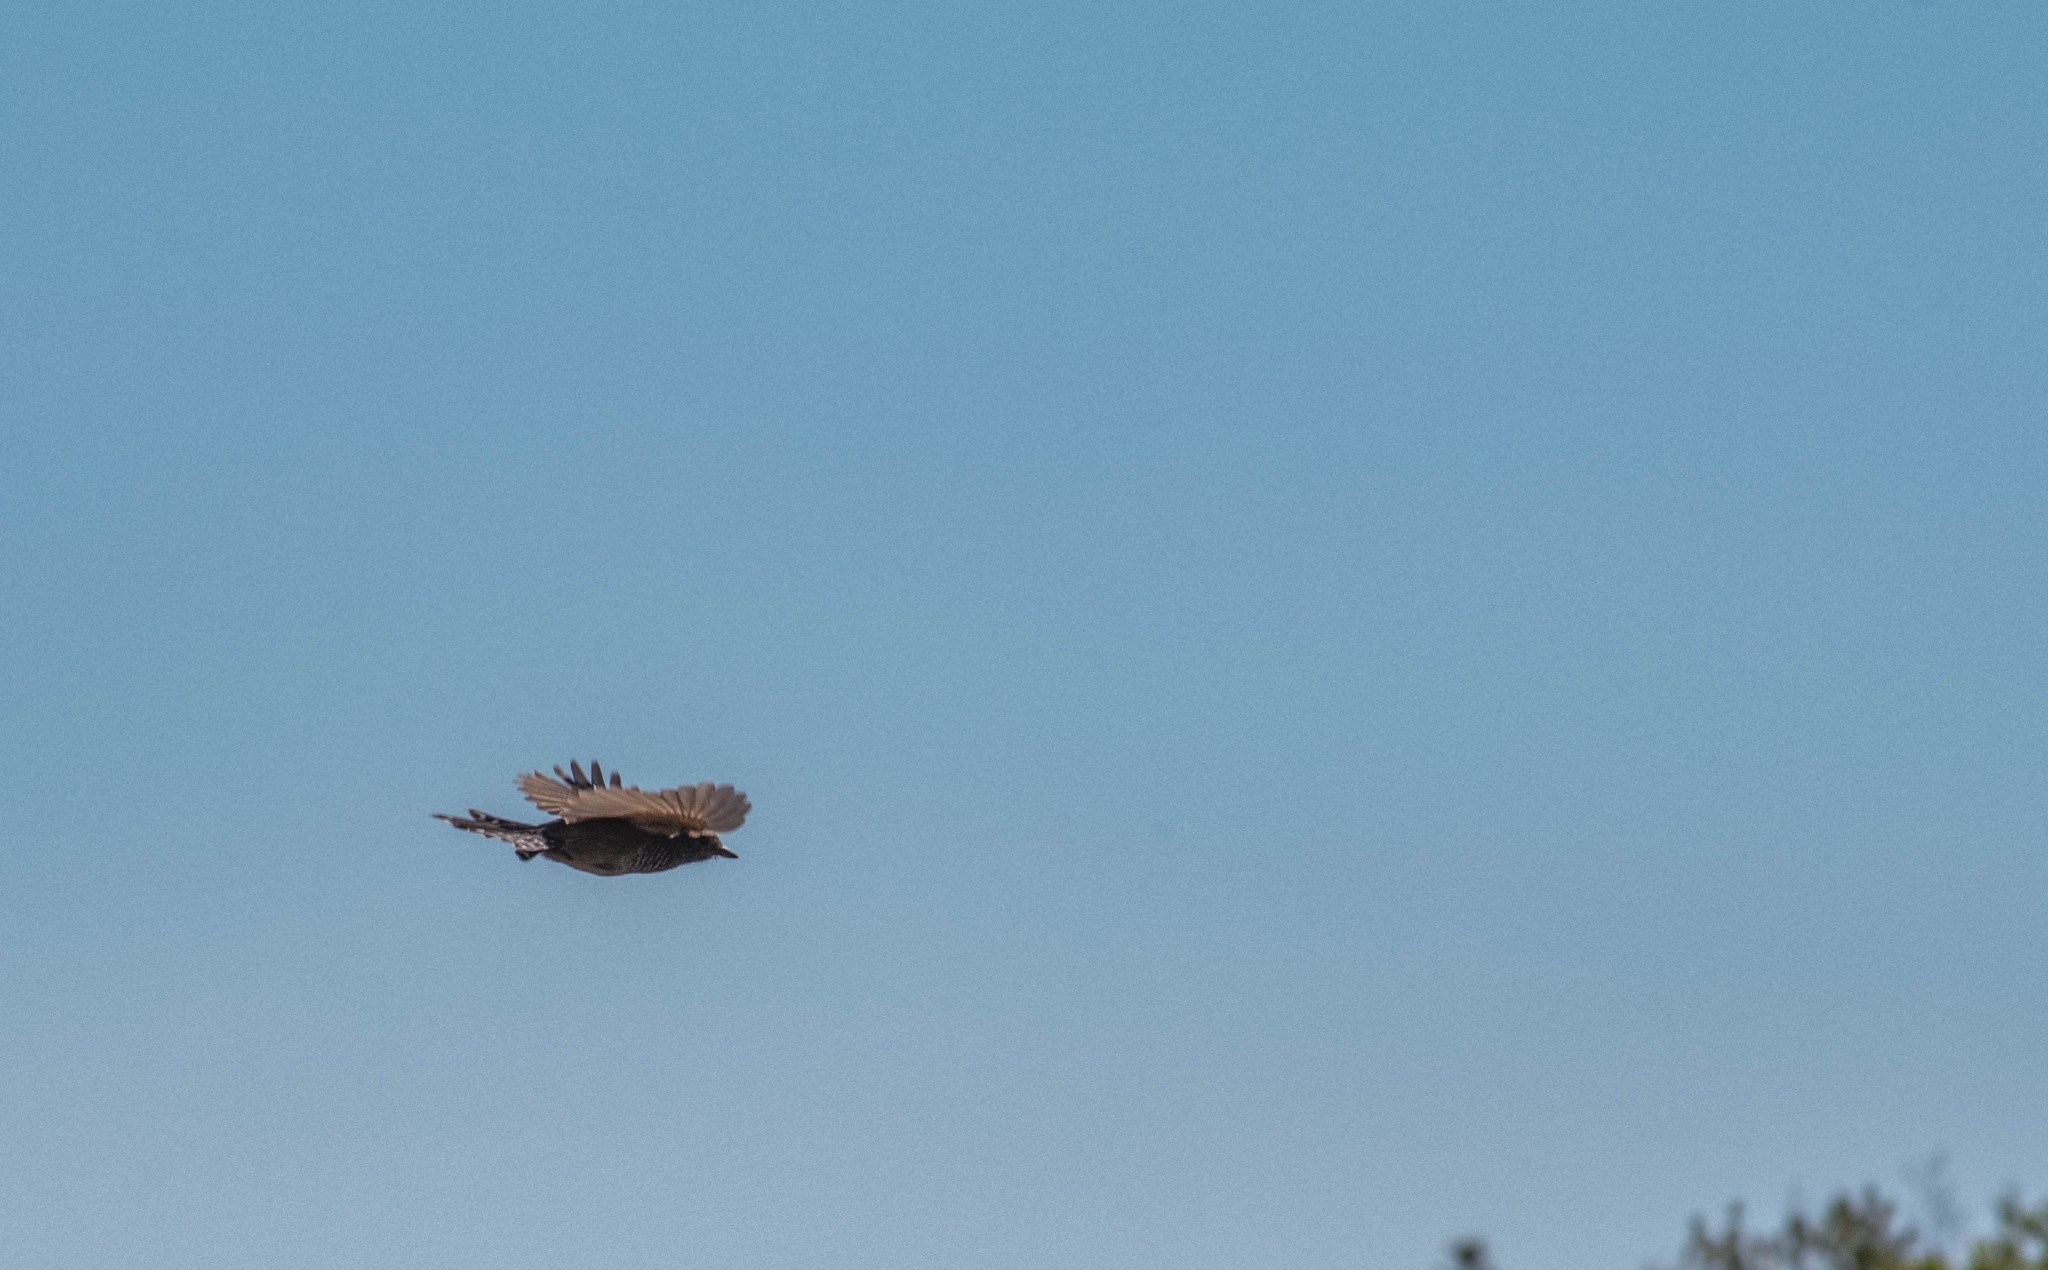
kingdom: Animalia
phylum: Chordata
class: Aves
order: Passeriformes
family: Thamnophilidae
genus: Thamnophilus
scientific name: Thamnophilus ruficapillus
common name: Rufous-capped antshrike
